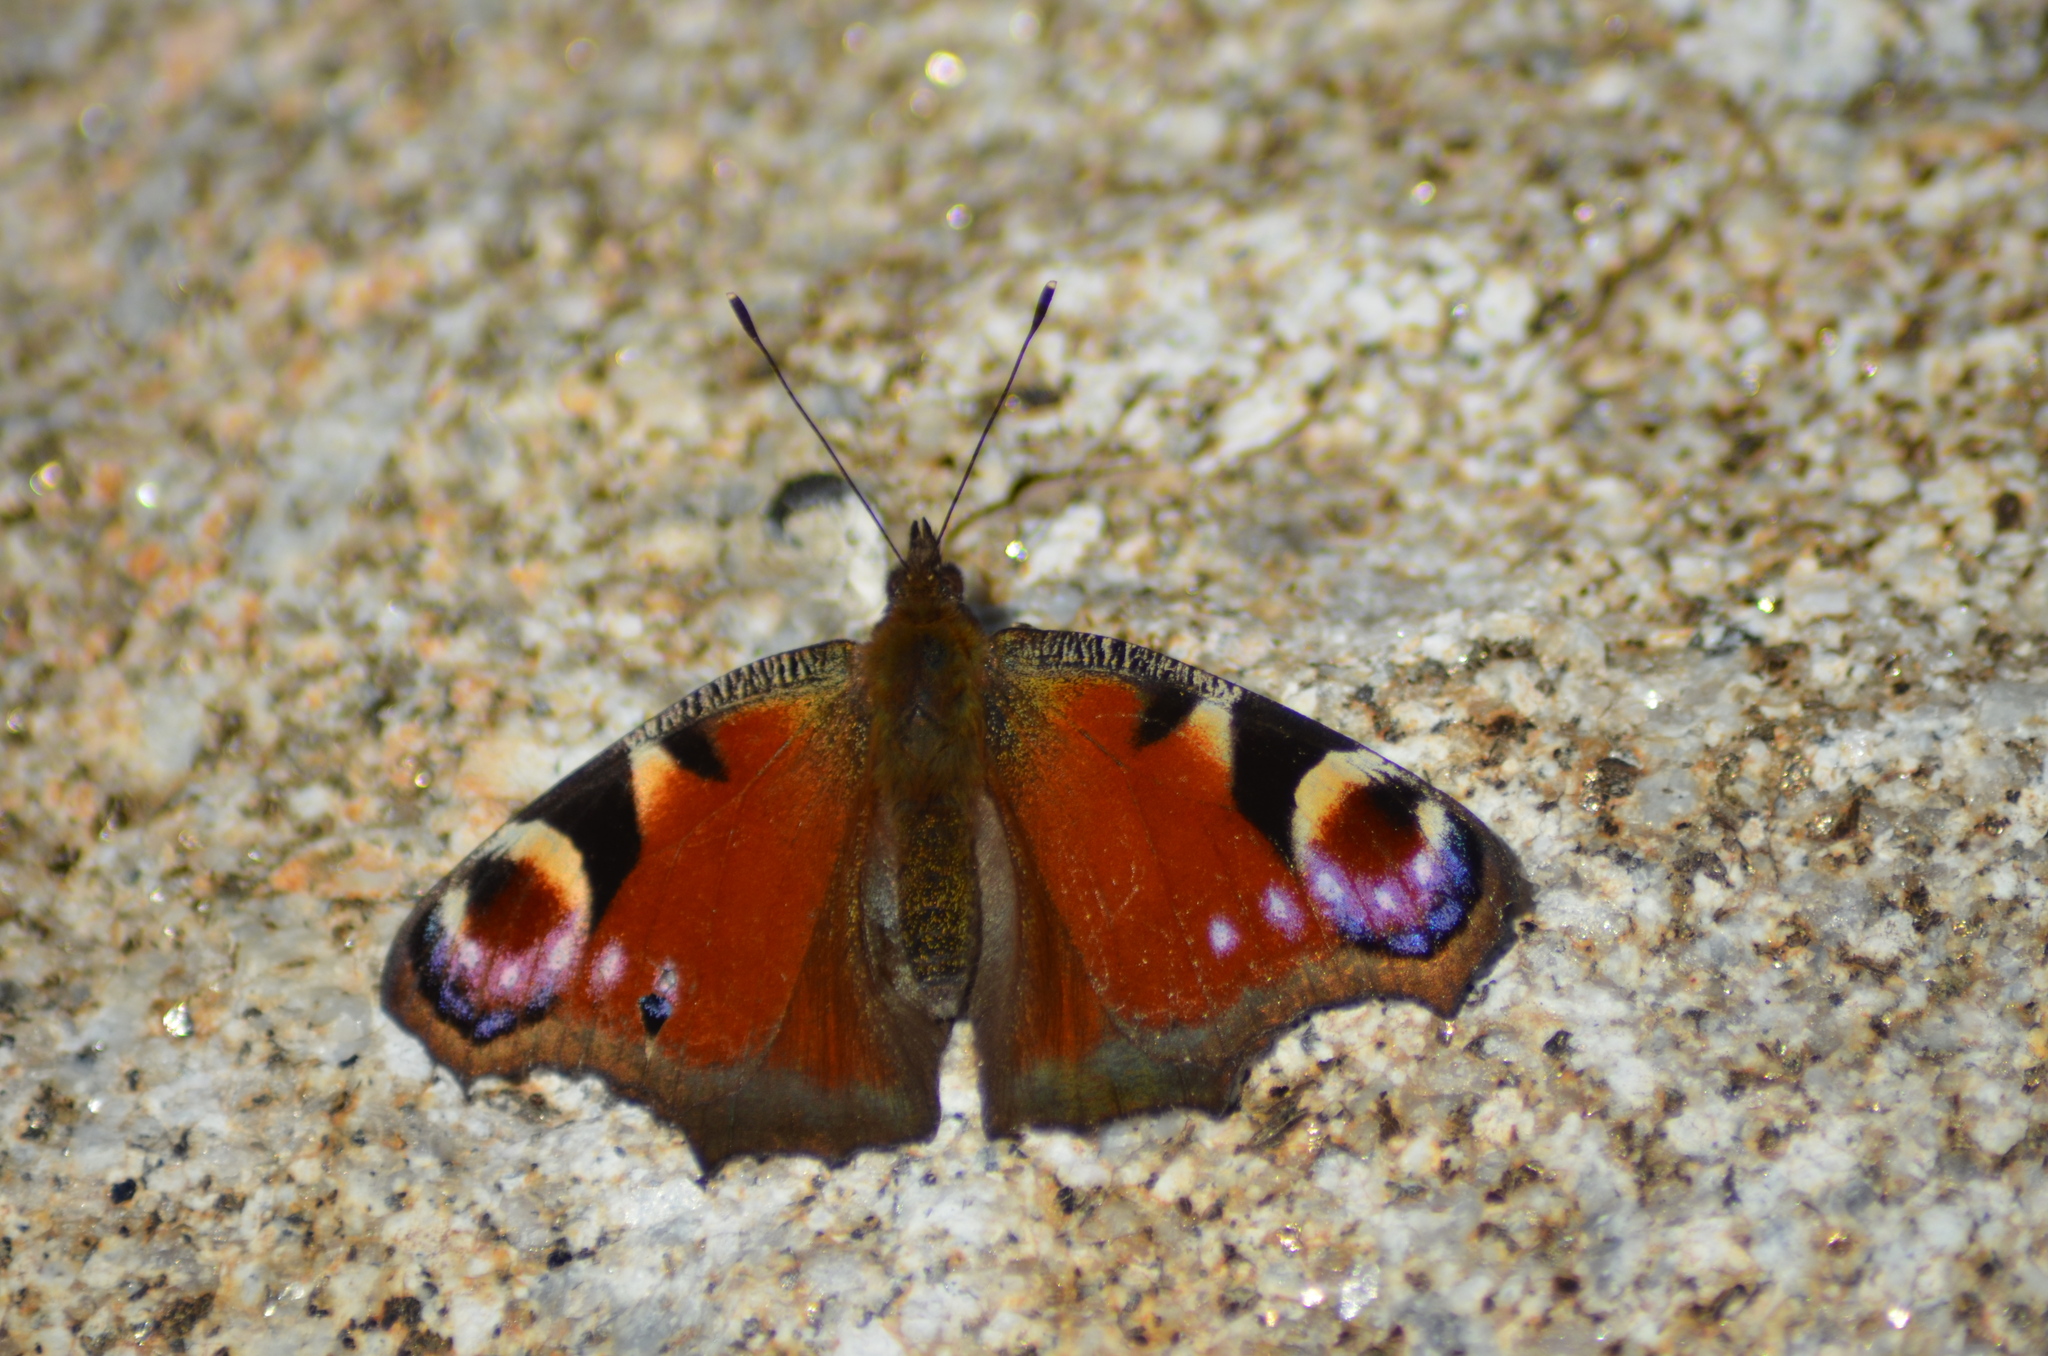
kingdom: Animalia
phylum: Arthropoda
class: Insecta
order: Lepidoptera
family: Nymphalidae
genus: Aglais
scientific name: Aglais io
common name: Peacock
